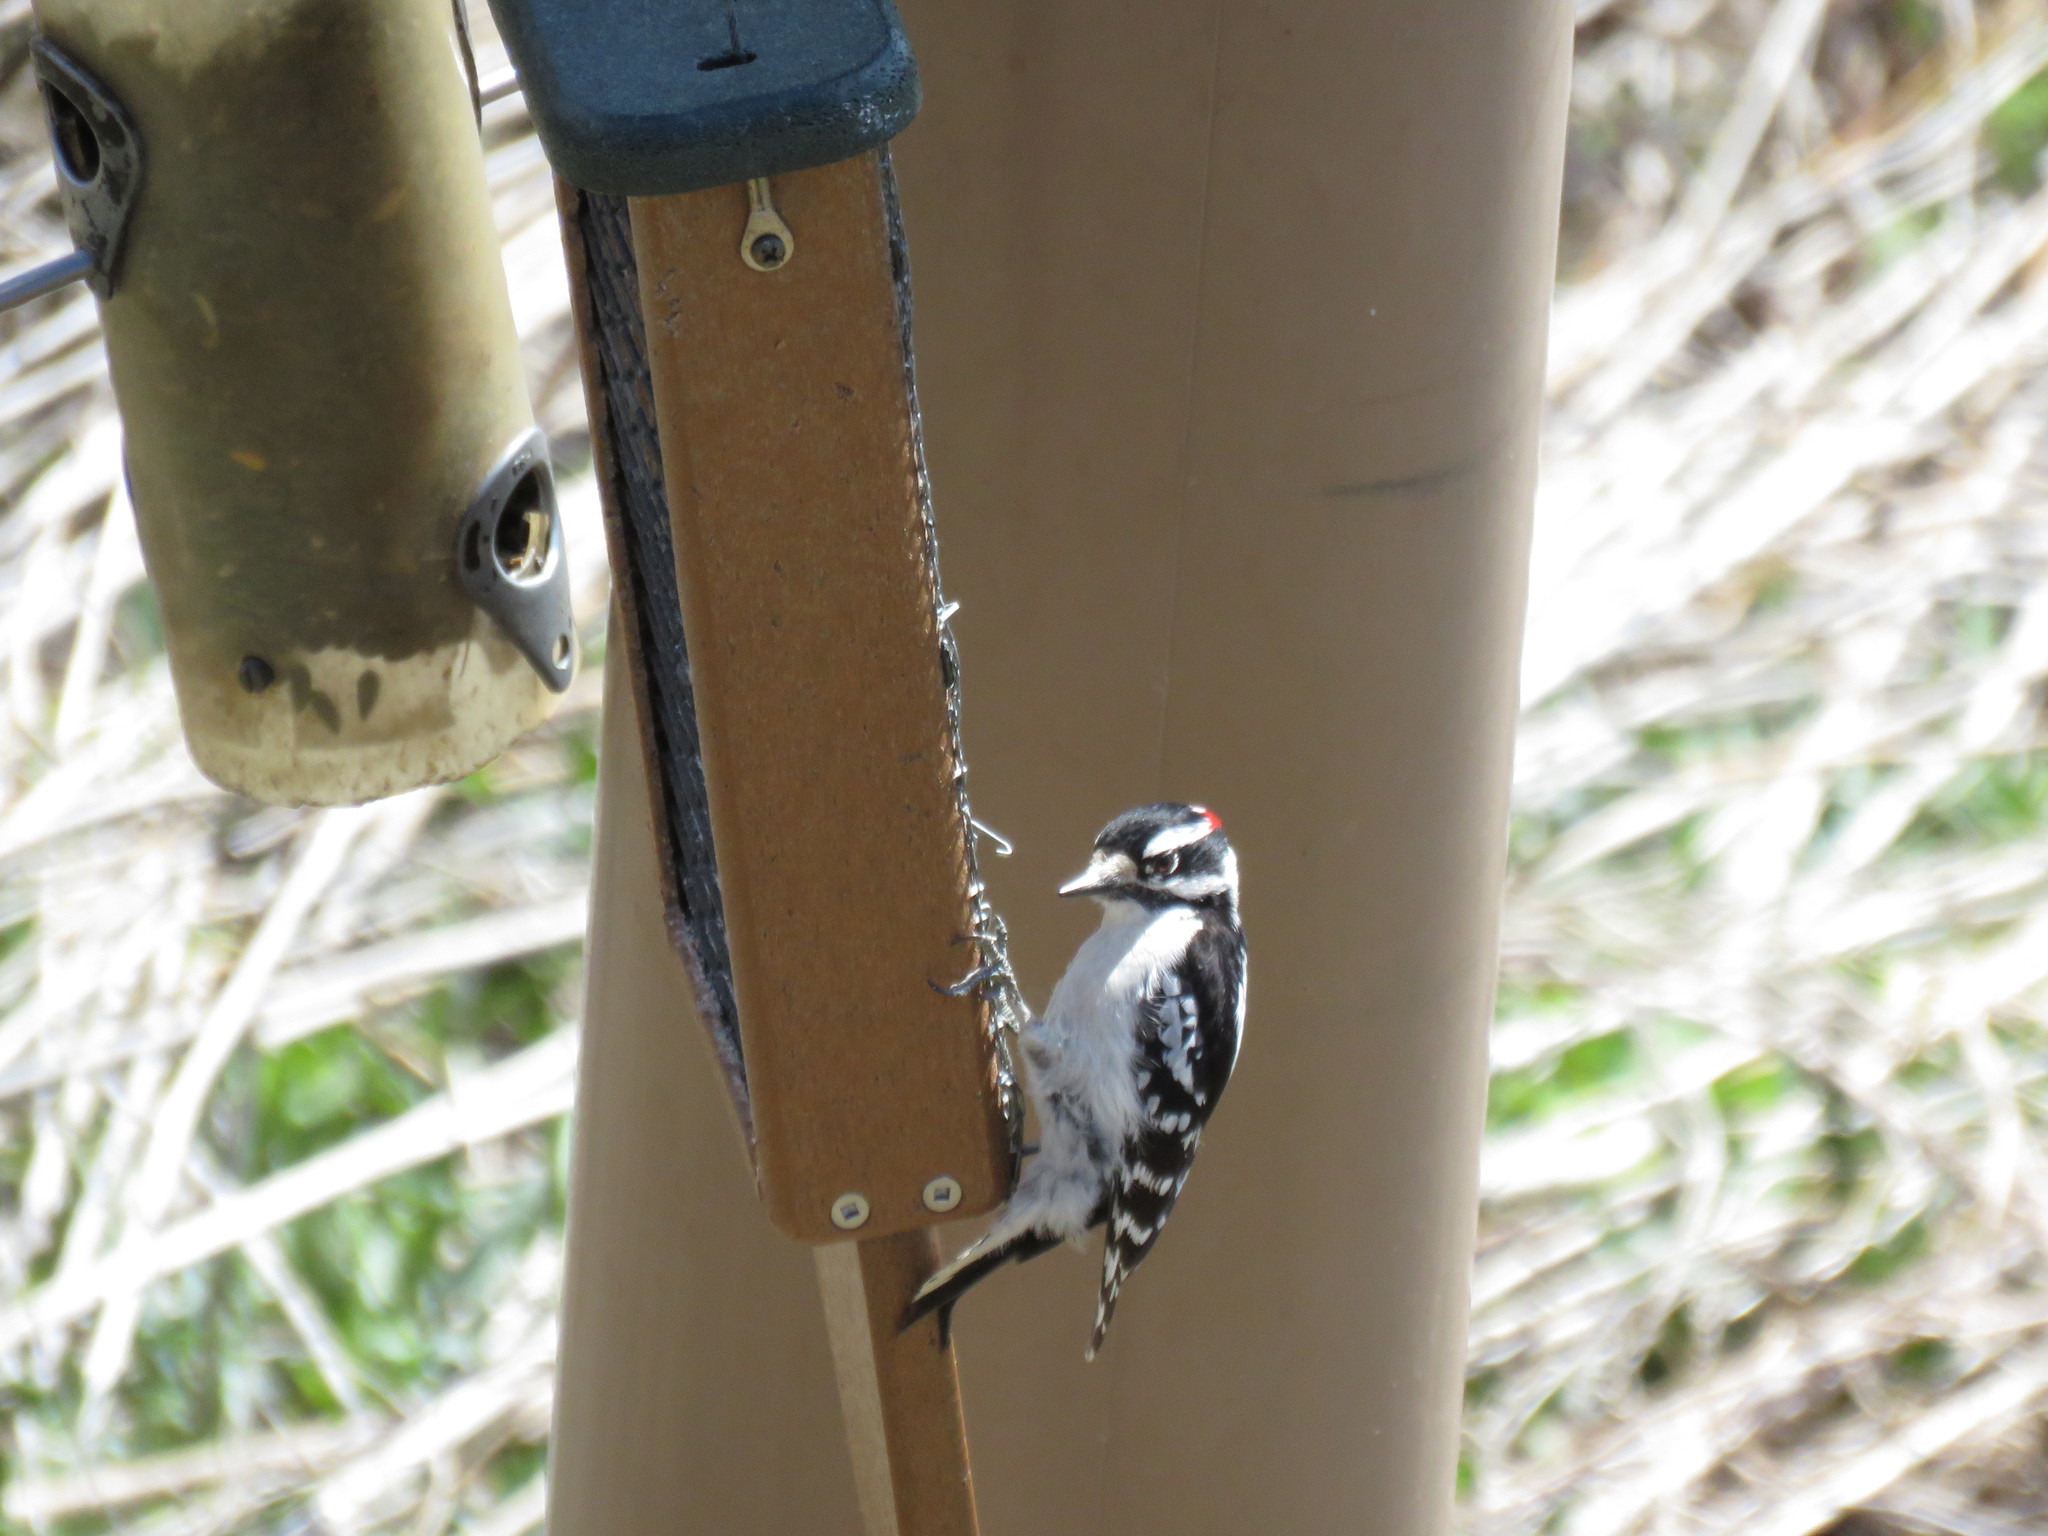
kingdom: Animalia
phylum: Chordata
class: Aves
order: Piciformes
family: Picidae
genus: Dryobates
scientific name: Dryobates pubescens
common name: Downy woodpecker
